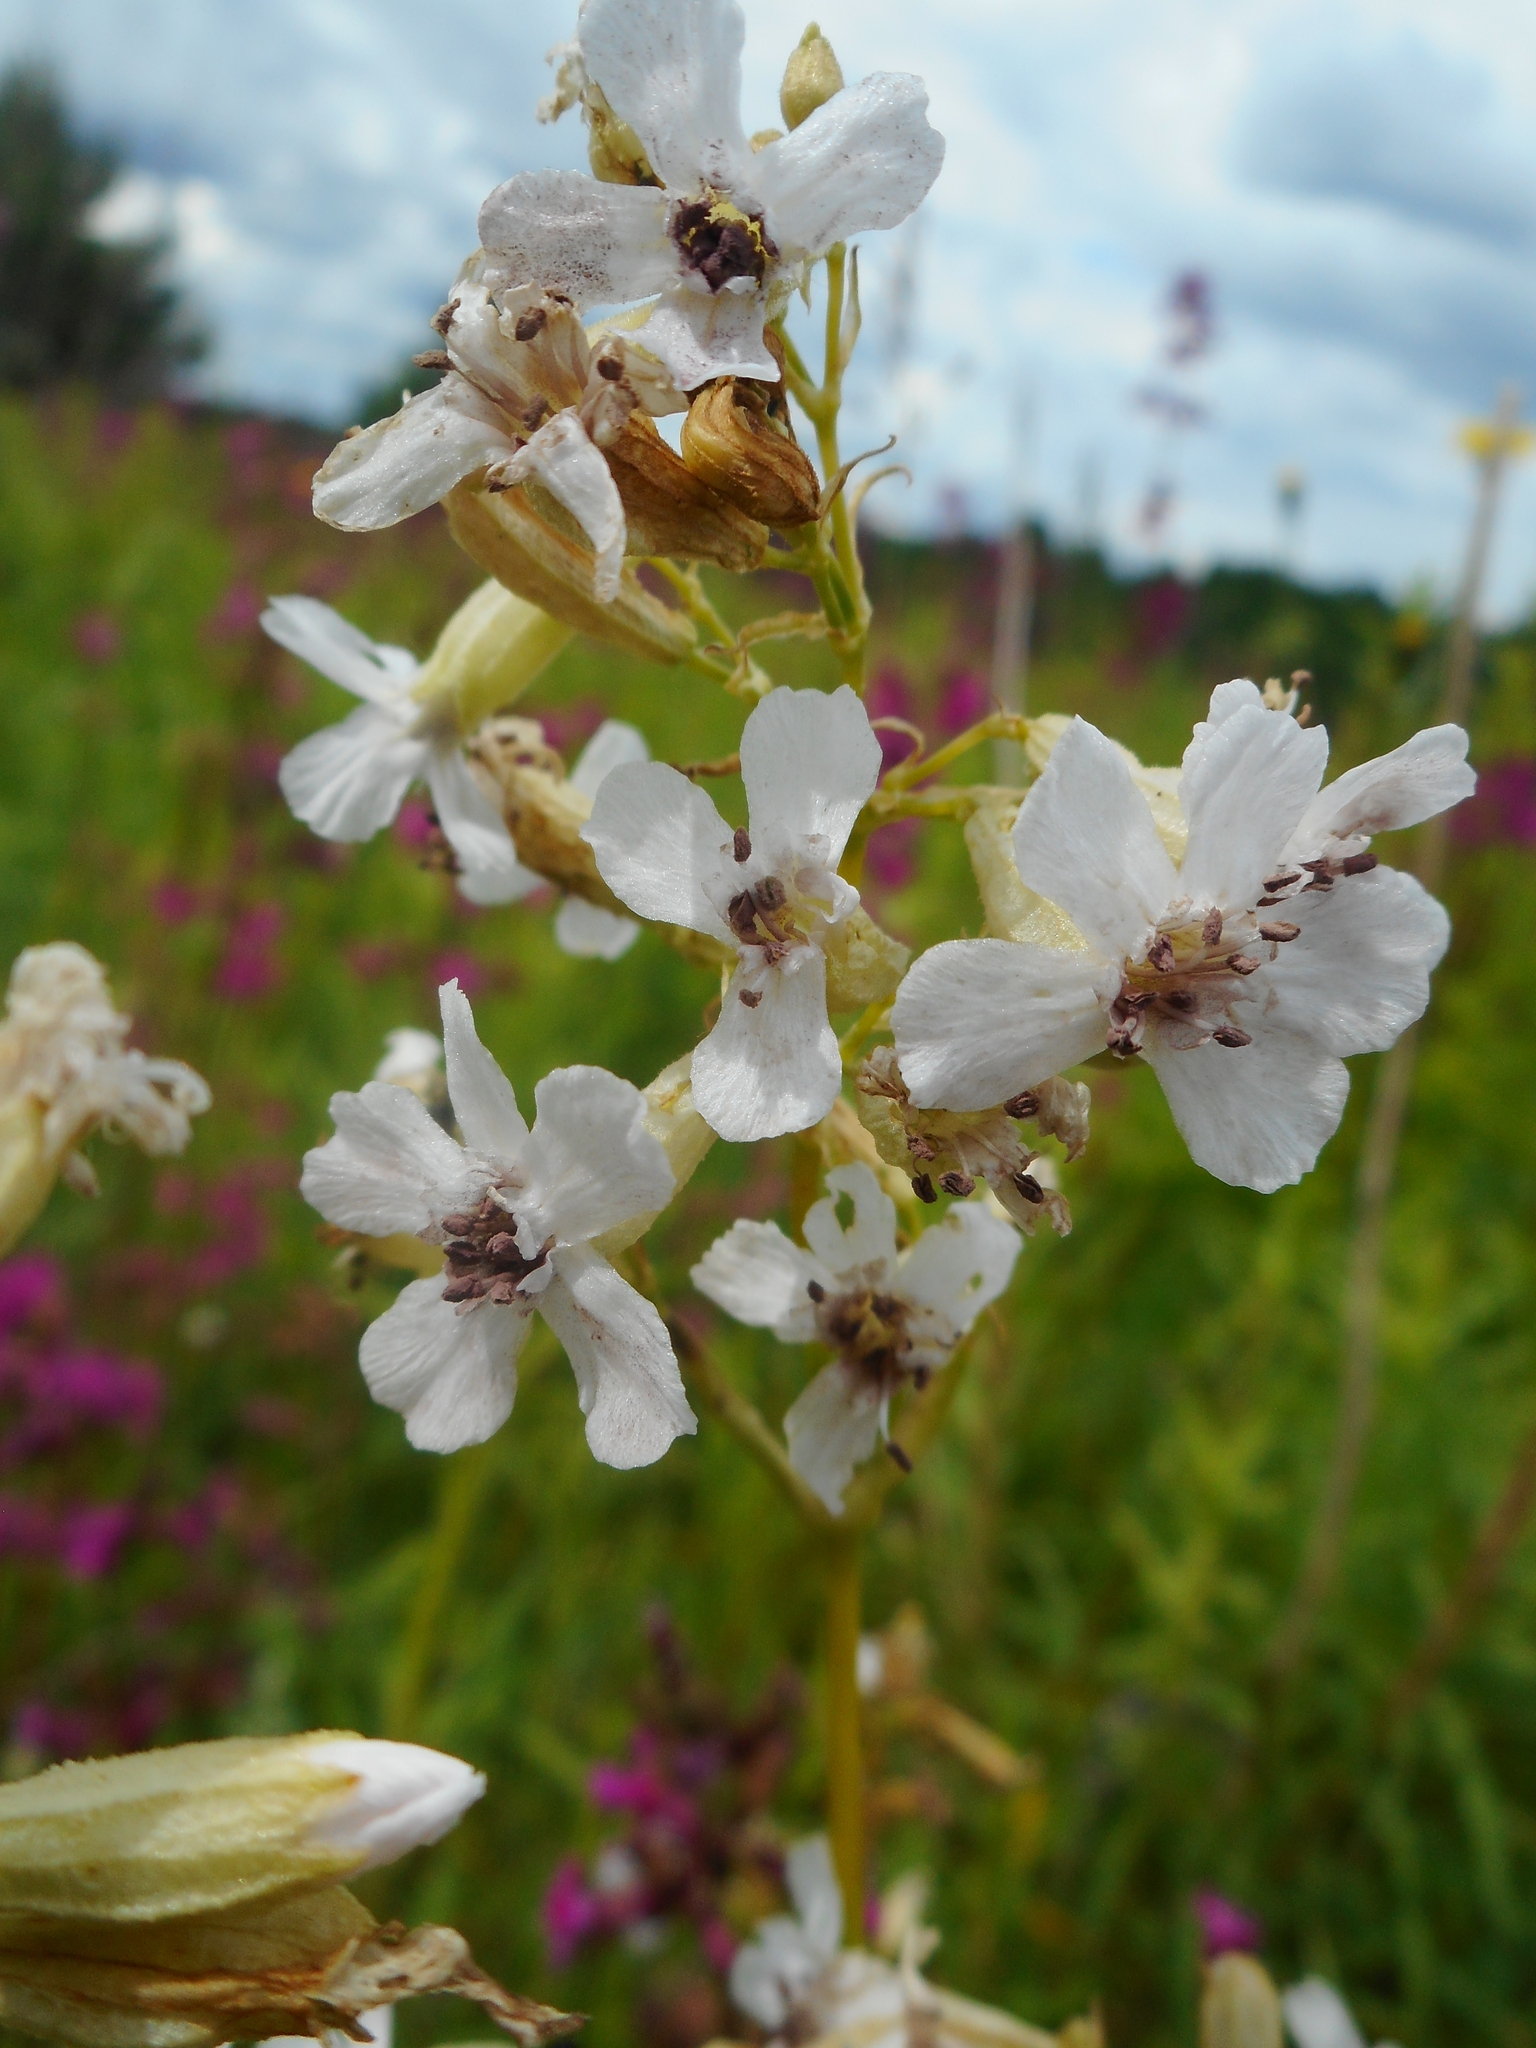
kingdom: Fungi
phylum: Basidiomycota
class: Microbotryomycetes
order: Microbotryales
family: Microbotryaceae
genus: Microbotryum
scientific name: Microbotryum lagerheimii
